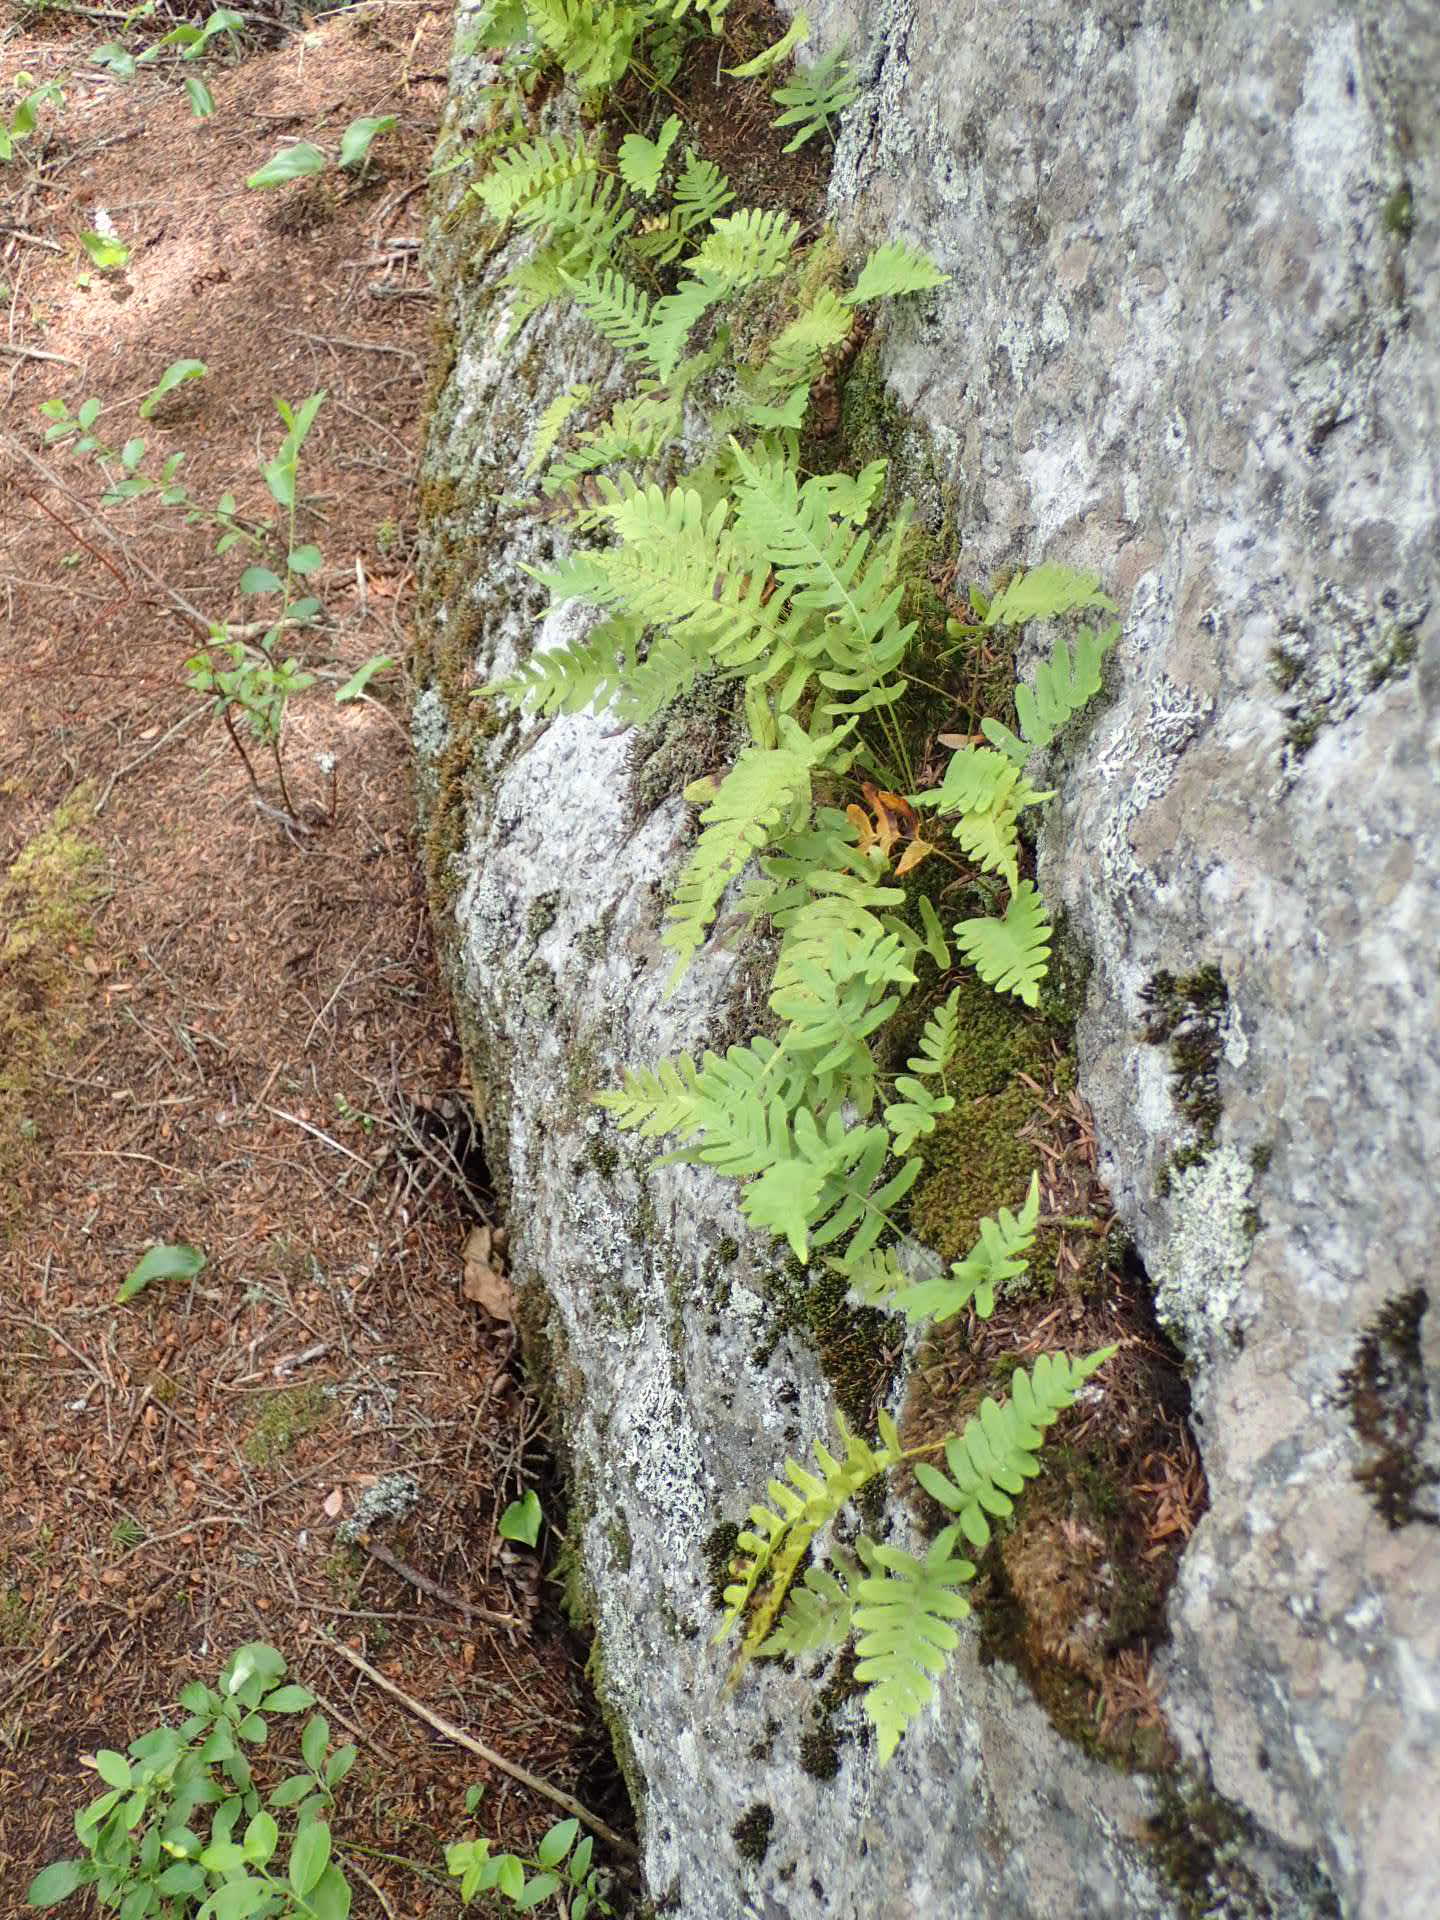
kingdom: Plantae
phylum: Tracheophyta
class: Polypodiopsida
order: Polypodiales
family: Polypodiaceae
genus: Polypodium
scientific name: Polypodium virginianum
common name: American wall fern
